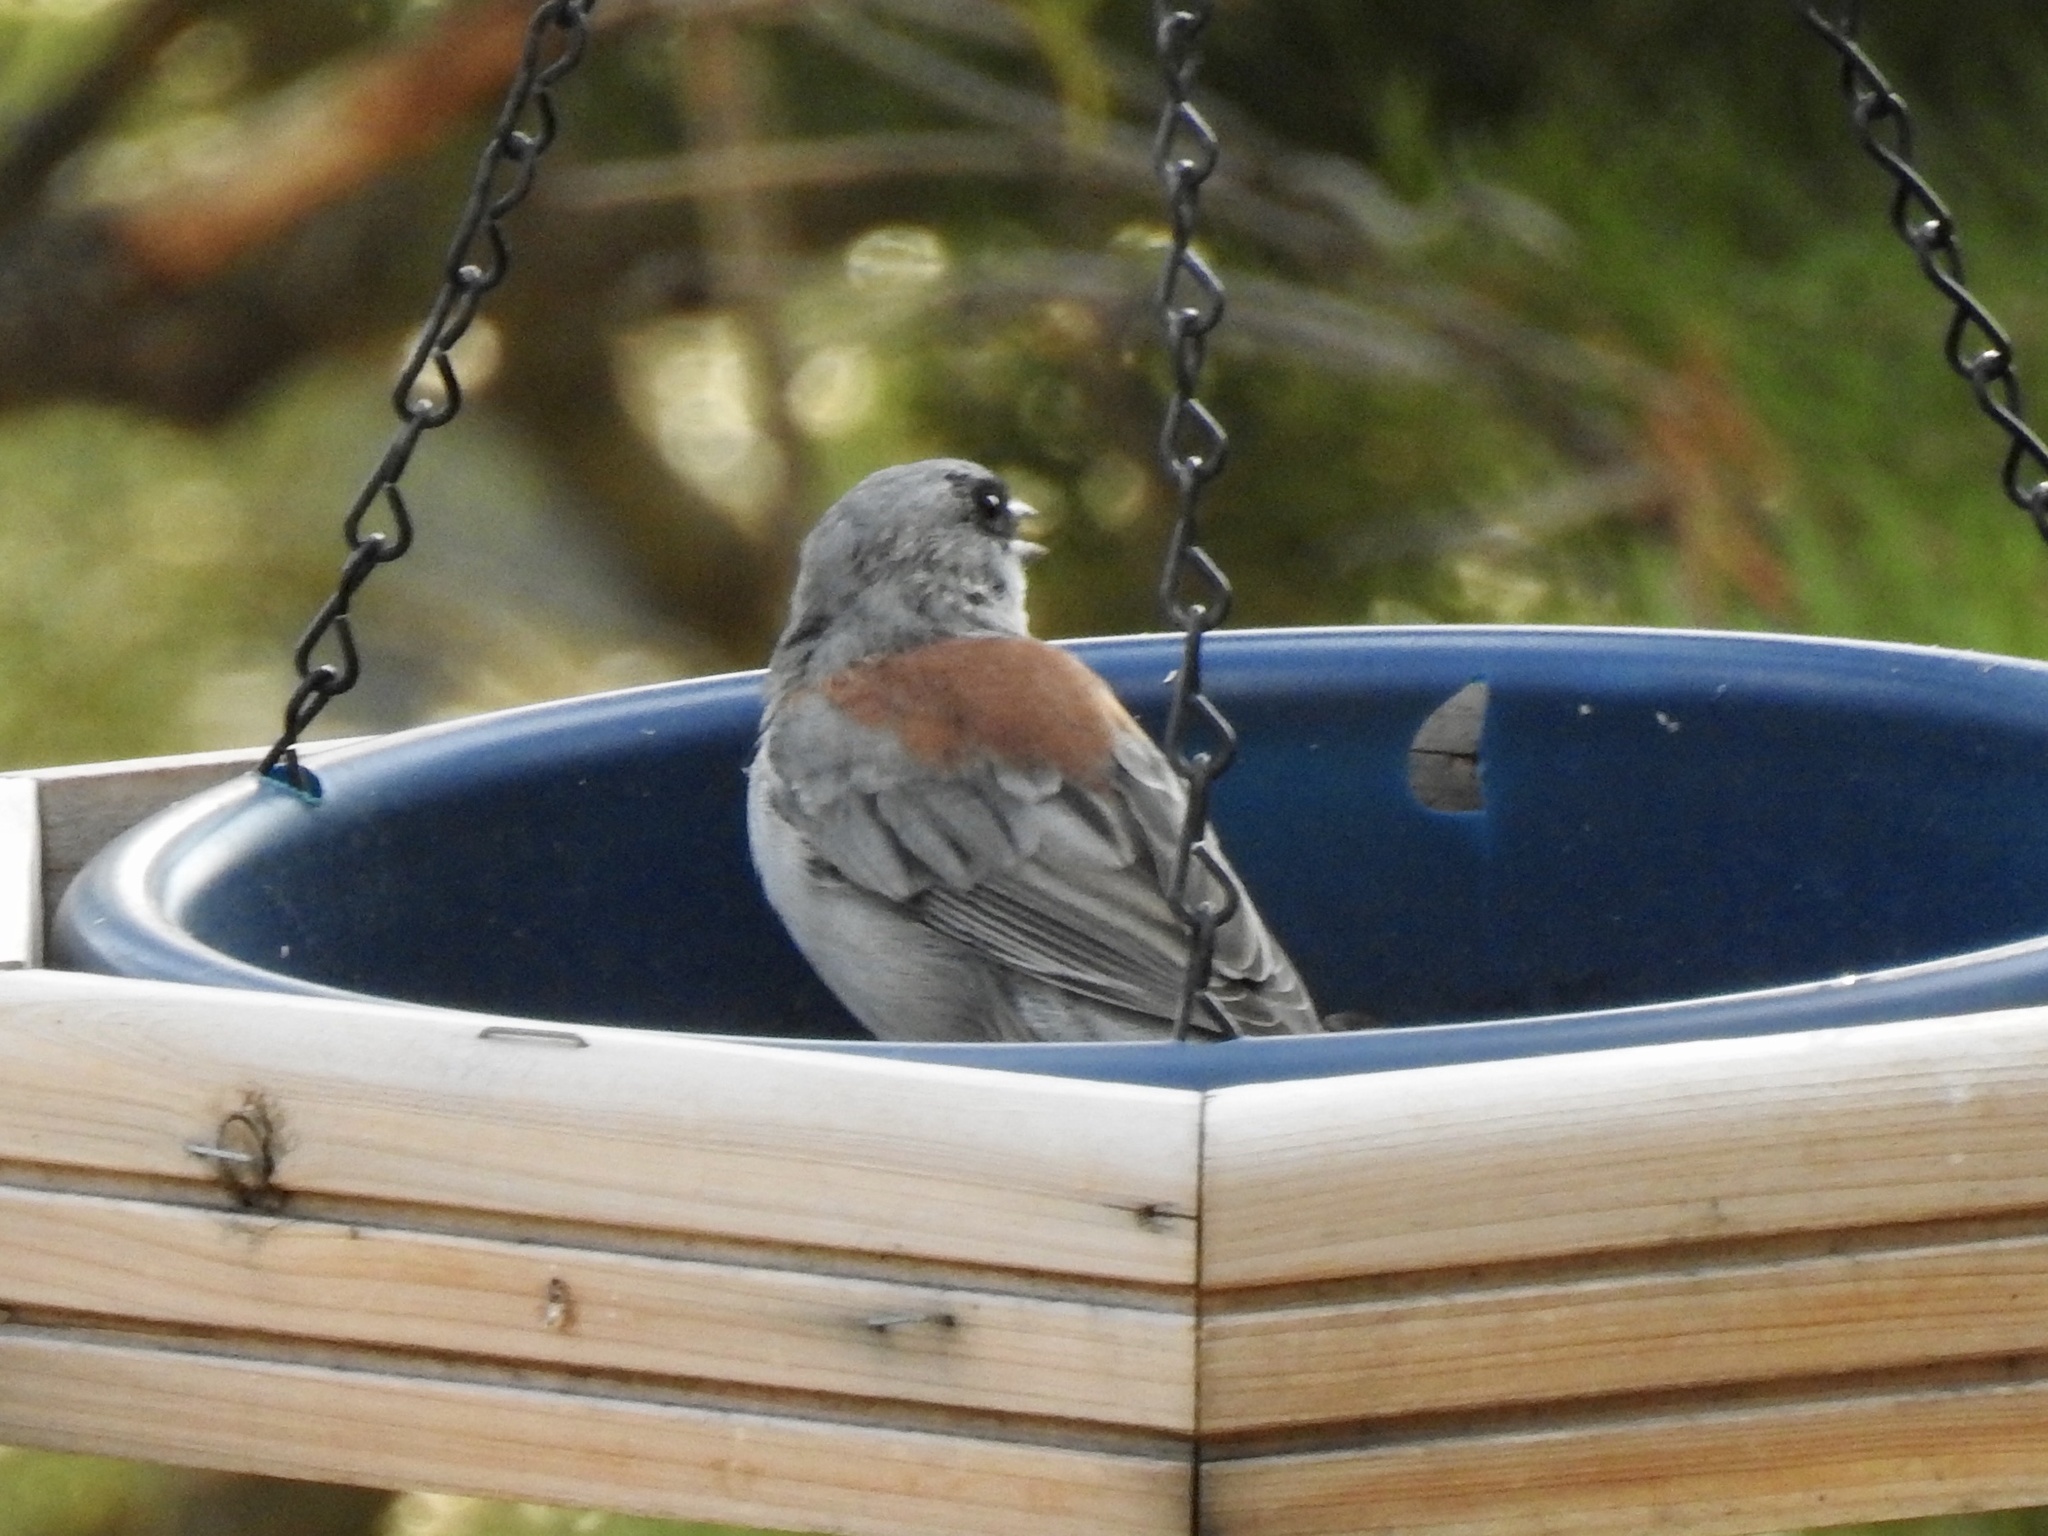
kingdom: Animalia
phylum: Chordata
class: Aves
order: Passeriformes
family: Passerellidae
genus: Junco
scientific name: Junco hyemalis
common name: Dark-eyed junco
